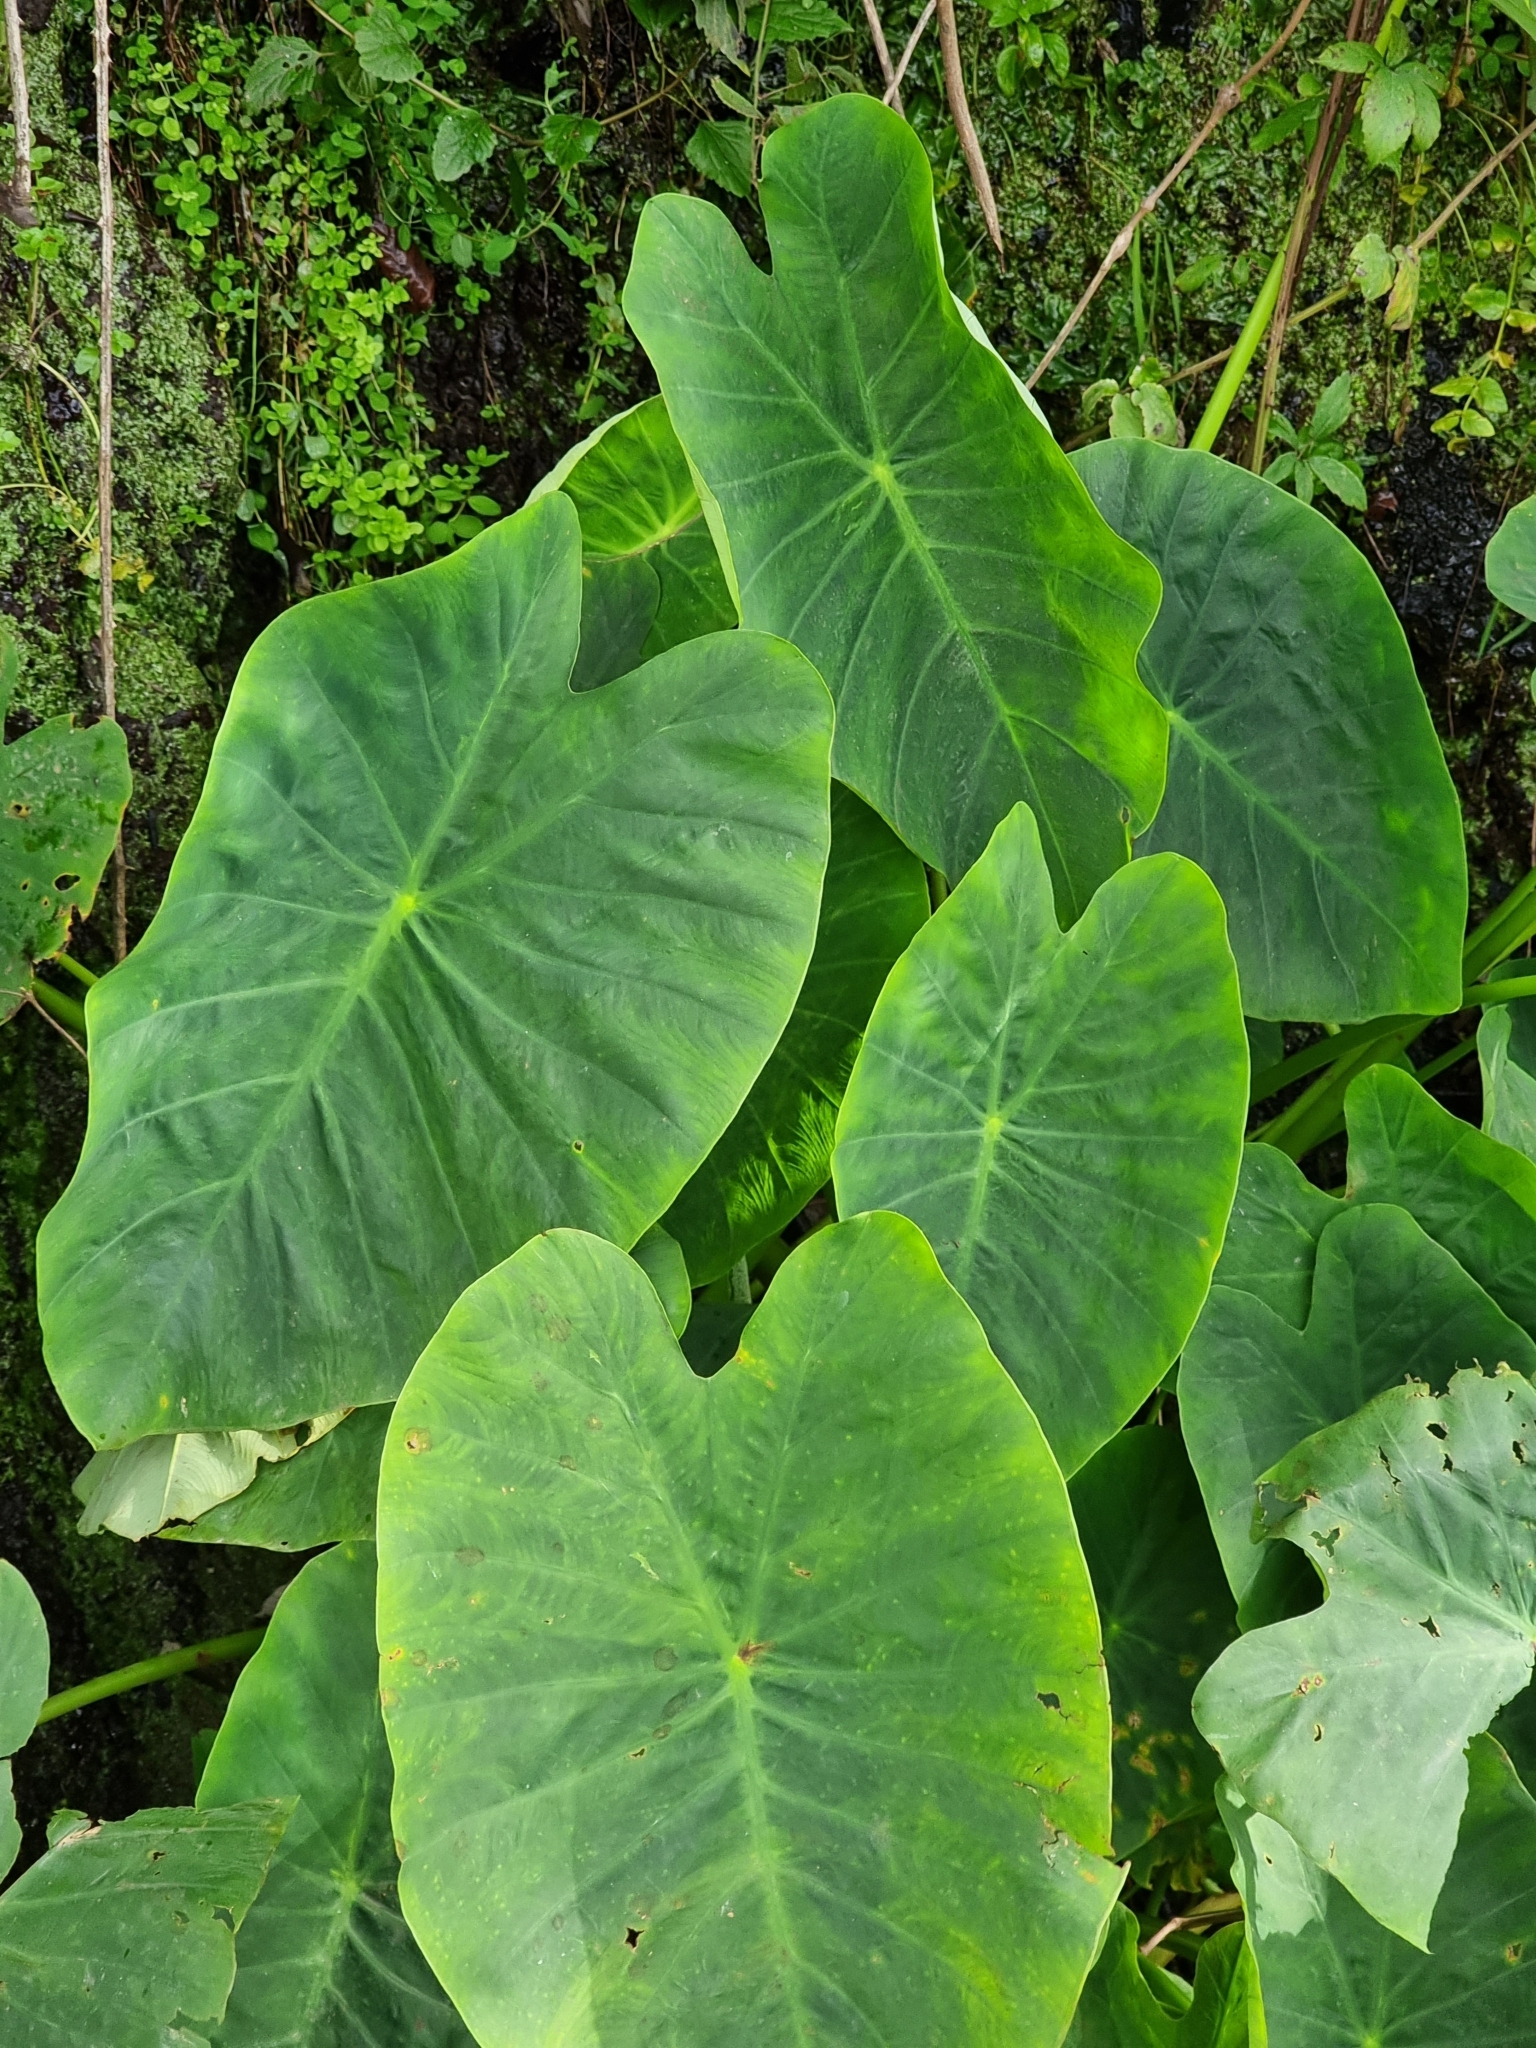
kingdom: Plantae
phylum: Tracheophyta
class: Liliopsida
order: Alismatales
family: Araceae
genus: Colocasia
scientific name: Colocasia esculenta
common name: Taro
